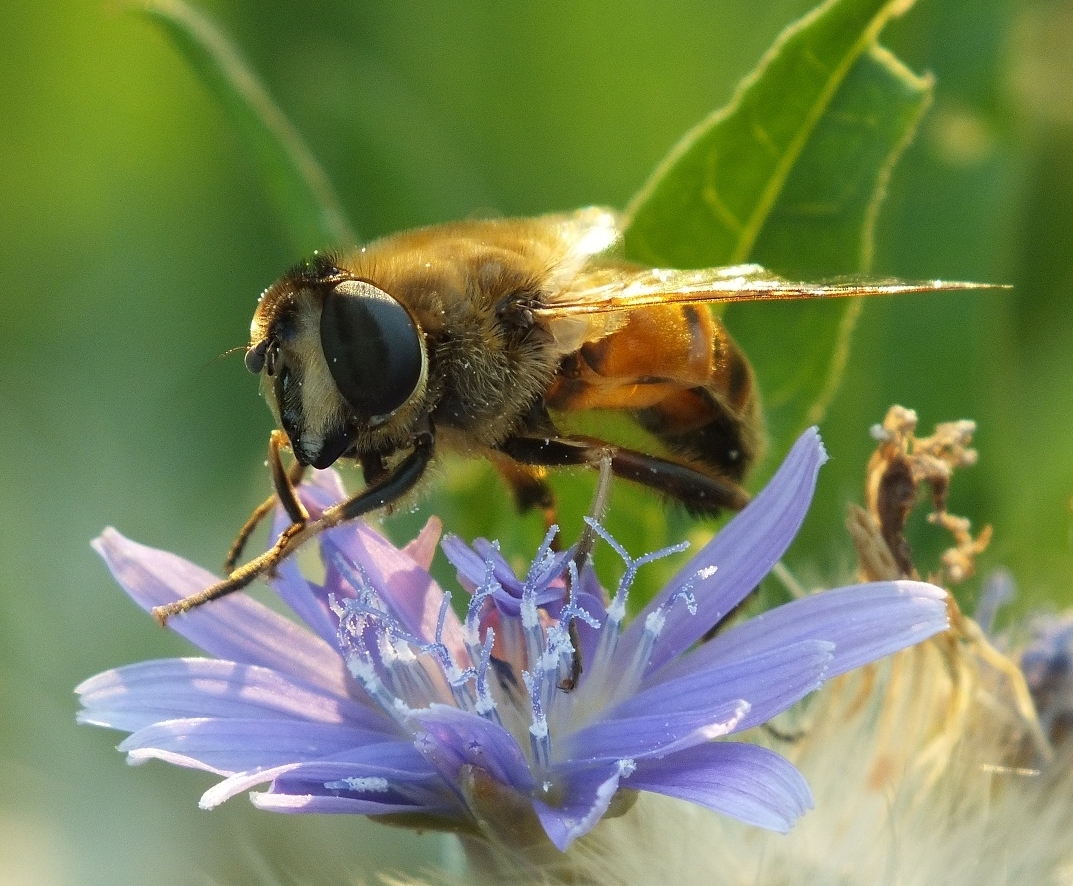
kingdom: Animalia
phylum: Arthropoda
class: Insecta
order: Diptera
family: Syrphidae
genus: Eristalis
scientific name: Eristalis tenax
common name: Drone fly
